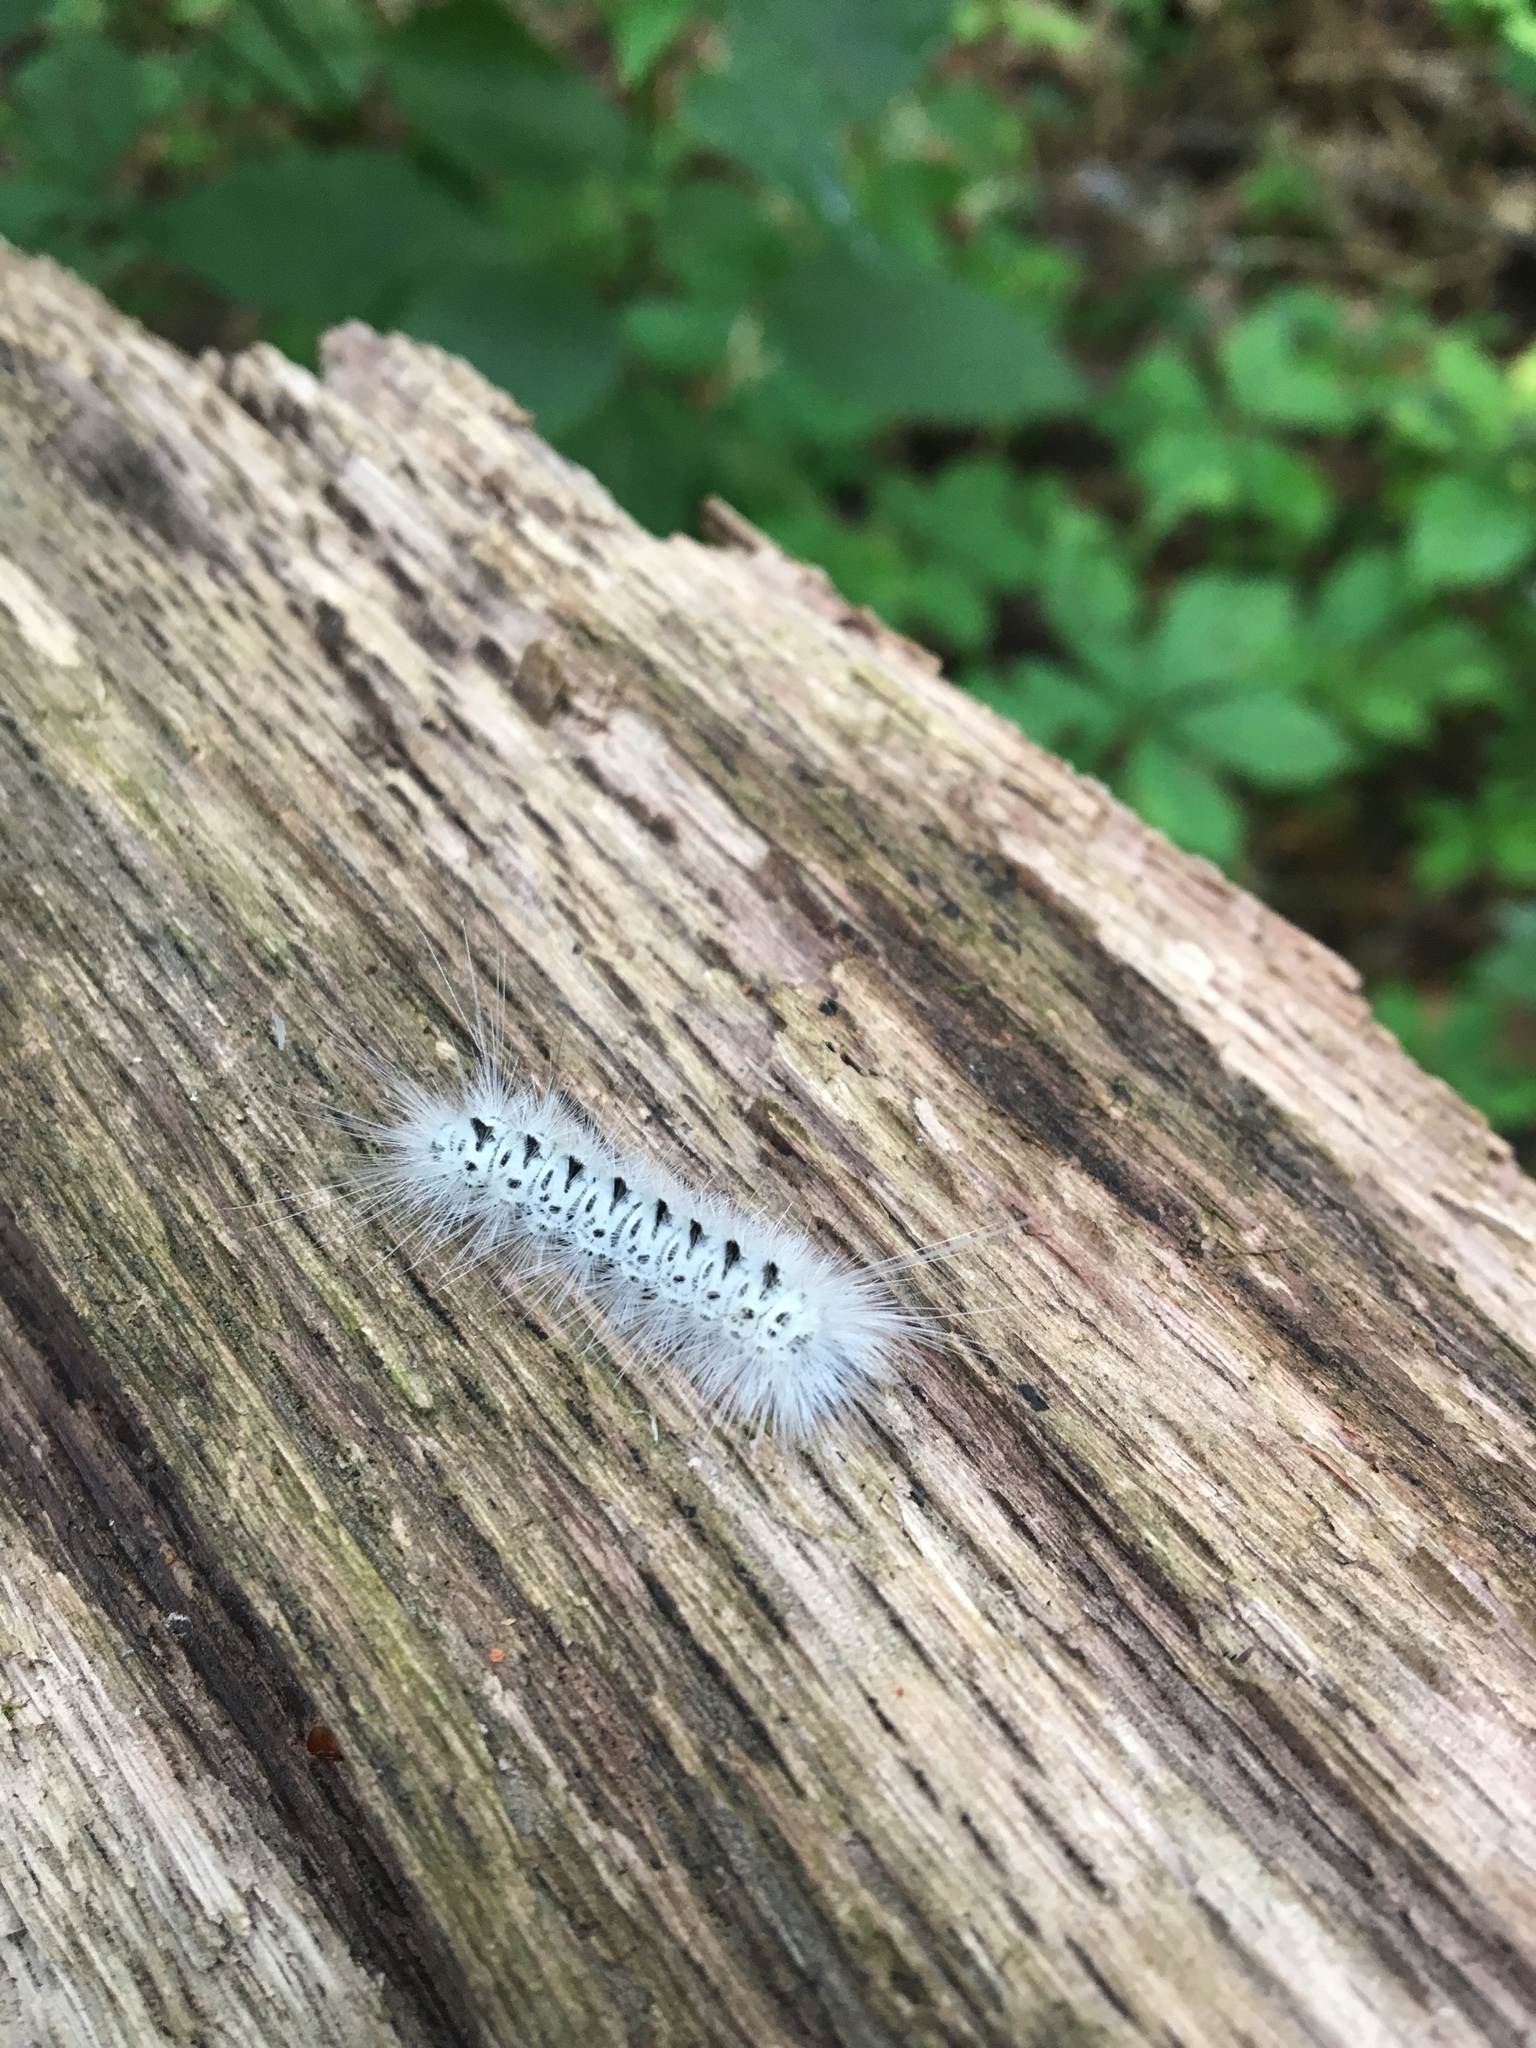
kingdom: Animalia
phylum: Arthropoda
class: Insecta
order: Lepidoptera
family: Erebidae
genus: Lophocampa
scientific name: Lophocampa caryae
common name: Hickory tussock moth
